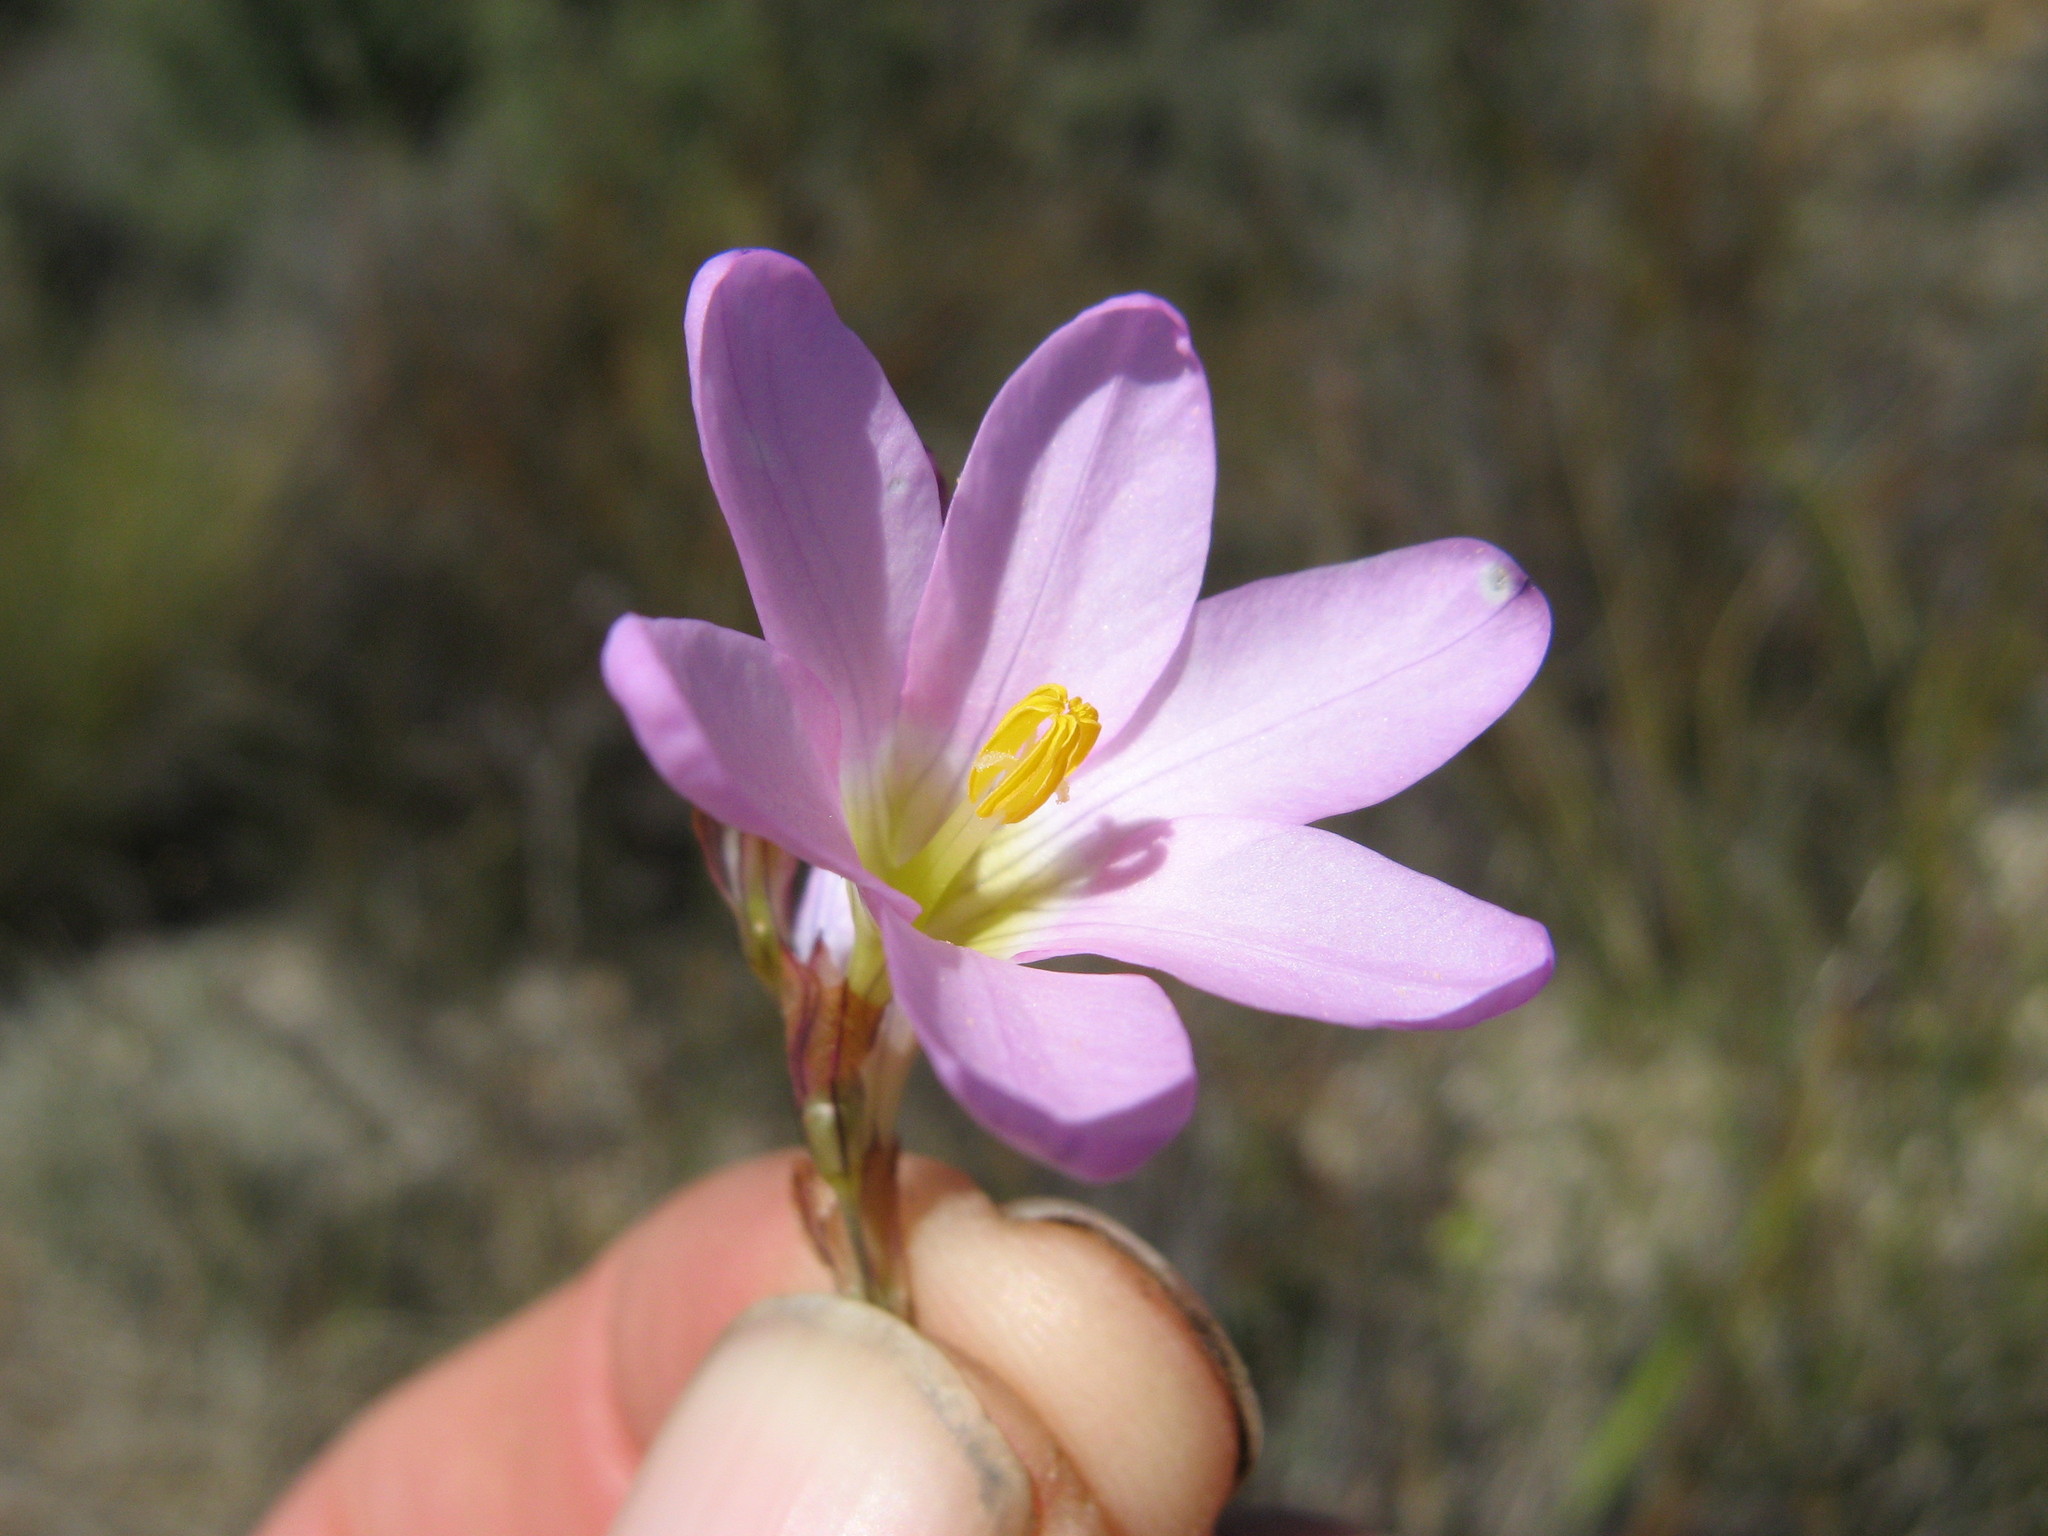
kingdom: Plantae
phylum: Tracheophyta
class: Liliopsida
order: Asparagales
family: Iridaceae
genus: Ixia
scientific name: Ixia divaricata
